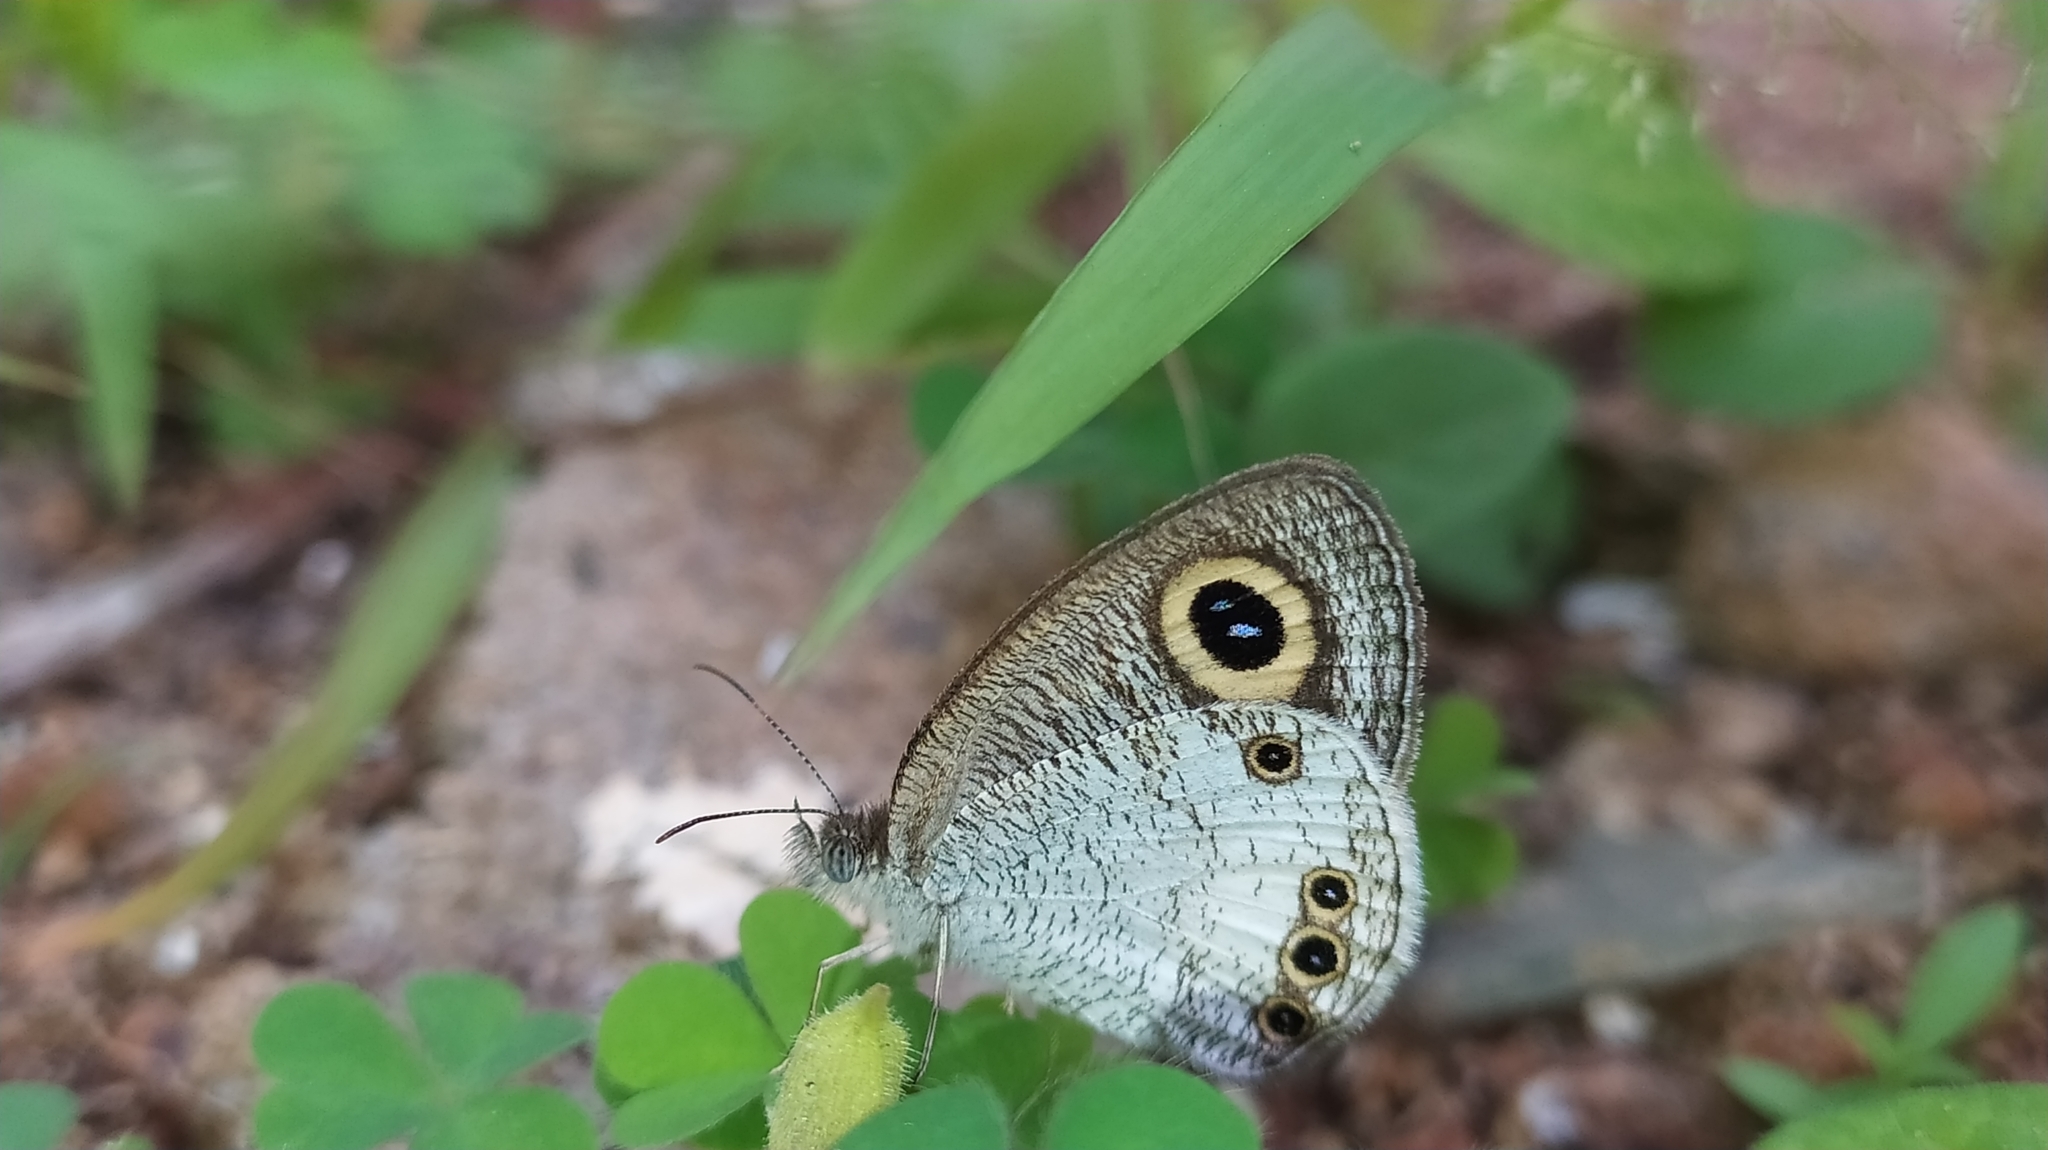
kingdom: Animalia
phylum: Arthropoda
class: Insecta
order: Lepidoptera
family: Nymphalidae
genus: Ypthima
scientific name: Ypthima ceylonica
